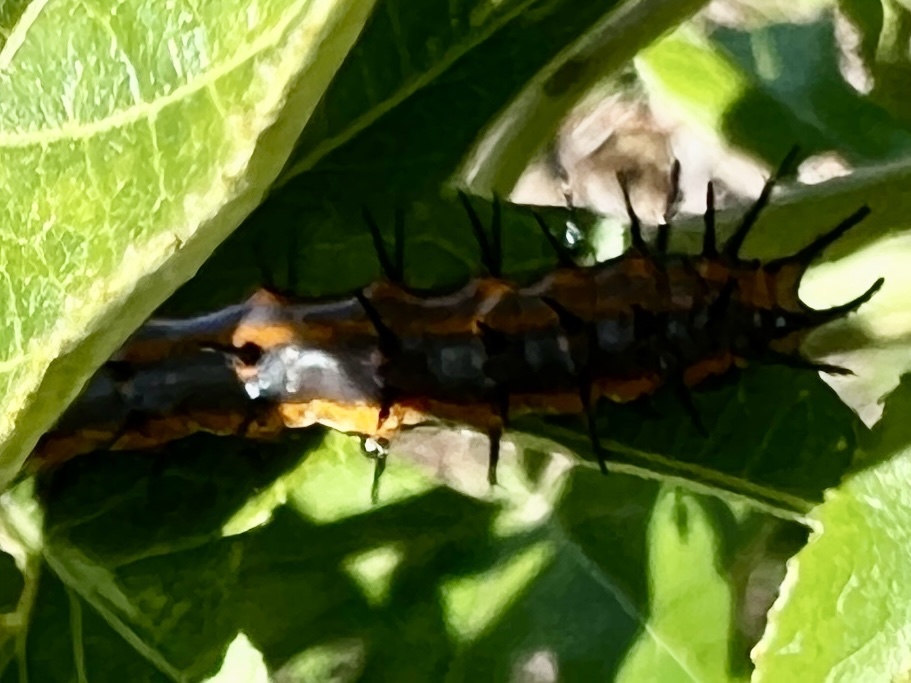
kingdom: Animalia
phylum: Arthropoda
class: Insecta
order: Lepidoptera
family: Nymphalidae
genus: Dione
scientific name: Dione vanillae
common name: Gulf fritillary
